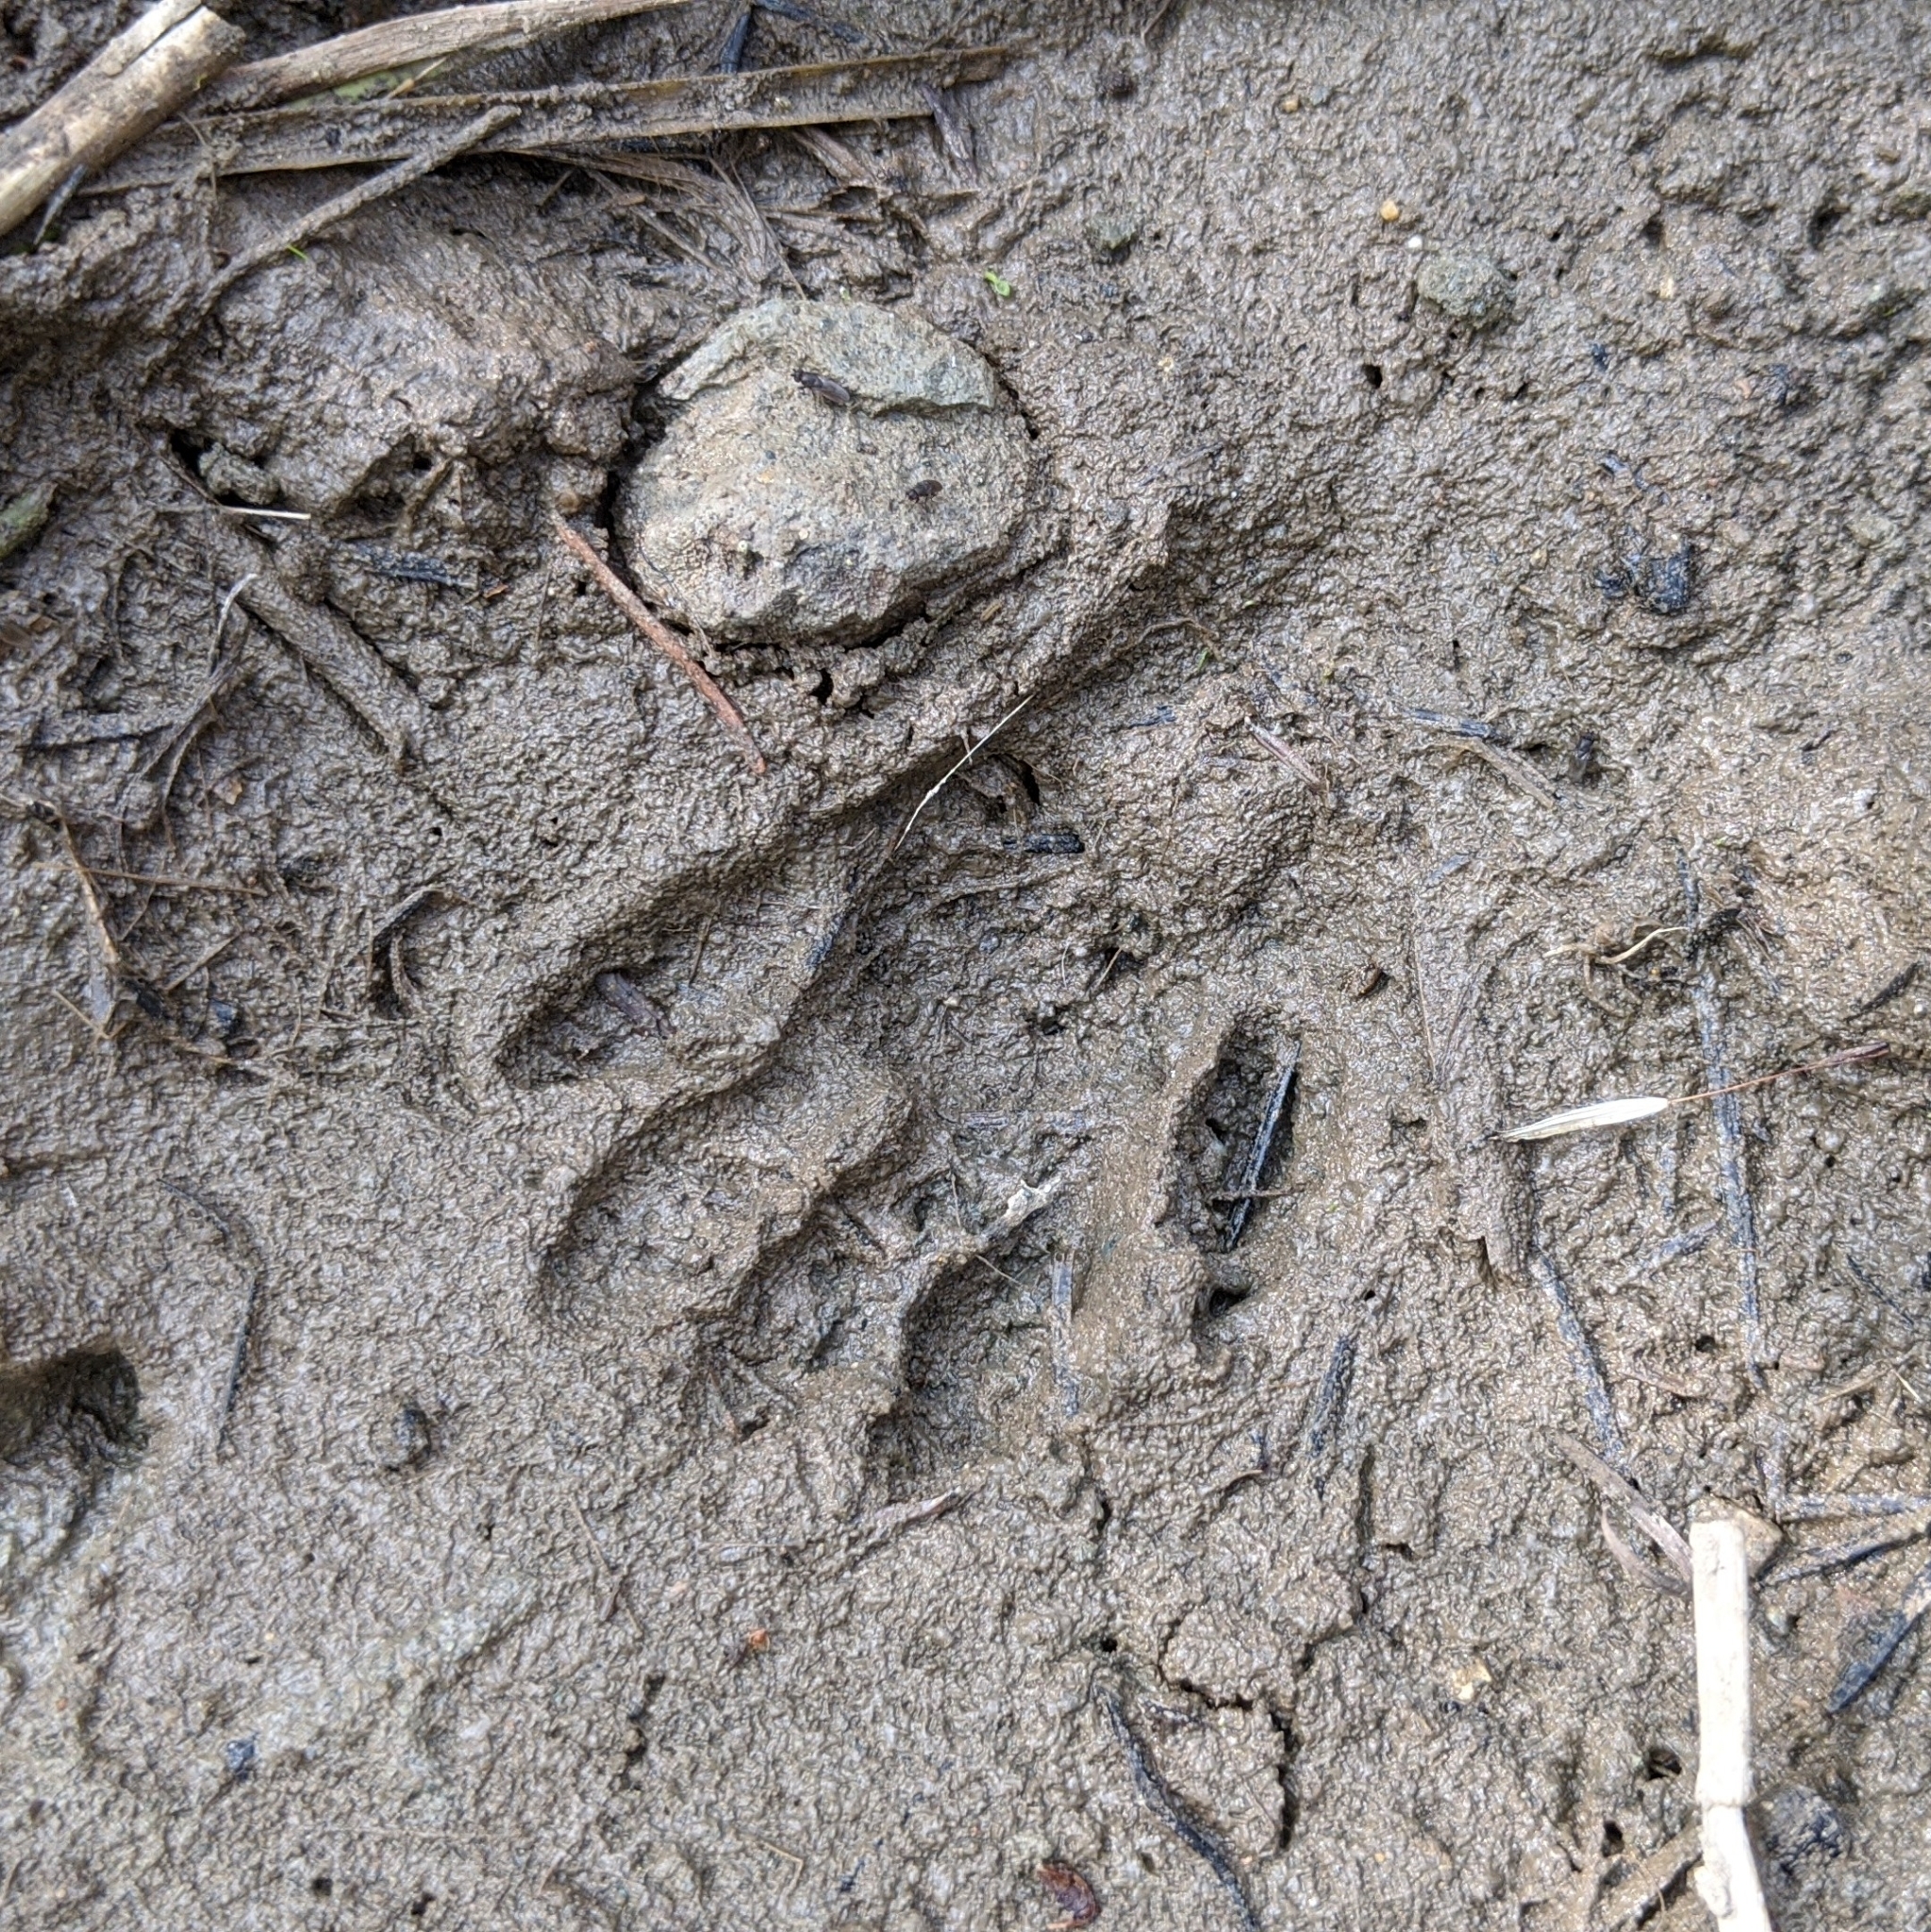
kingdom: Animalia
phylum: Chordata
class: Mammalia
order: Carnivora
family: Procyonidae
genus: Procyon
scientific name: Procyon lotor
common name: Raccoon
